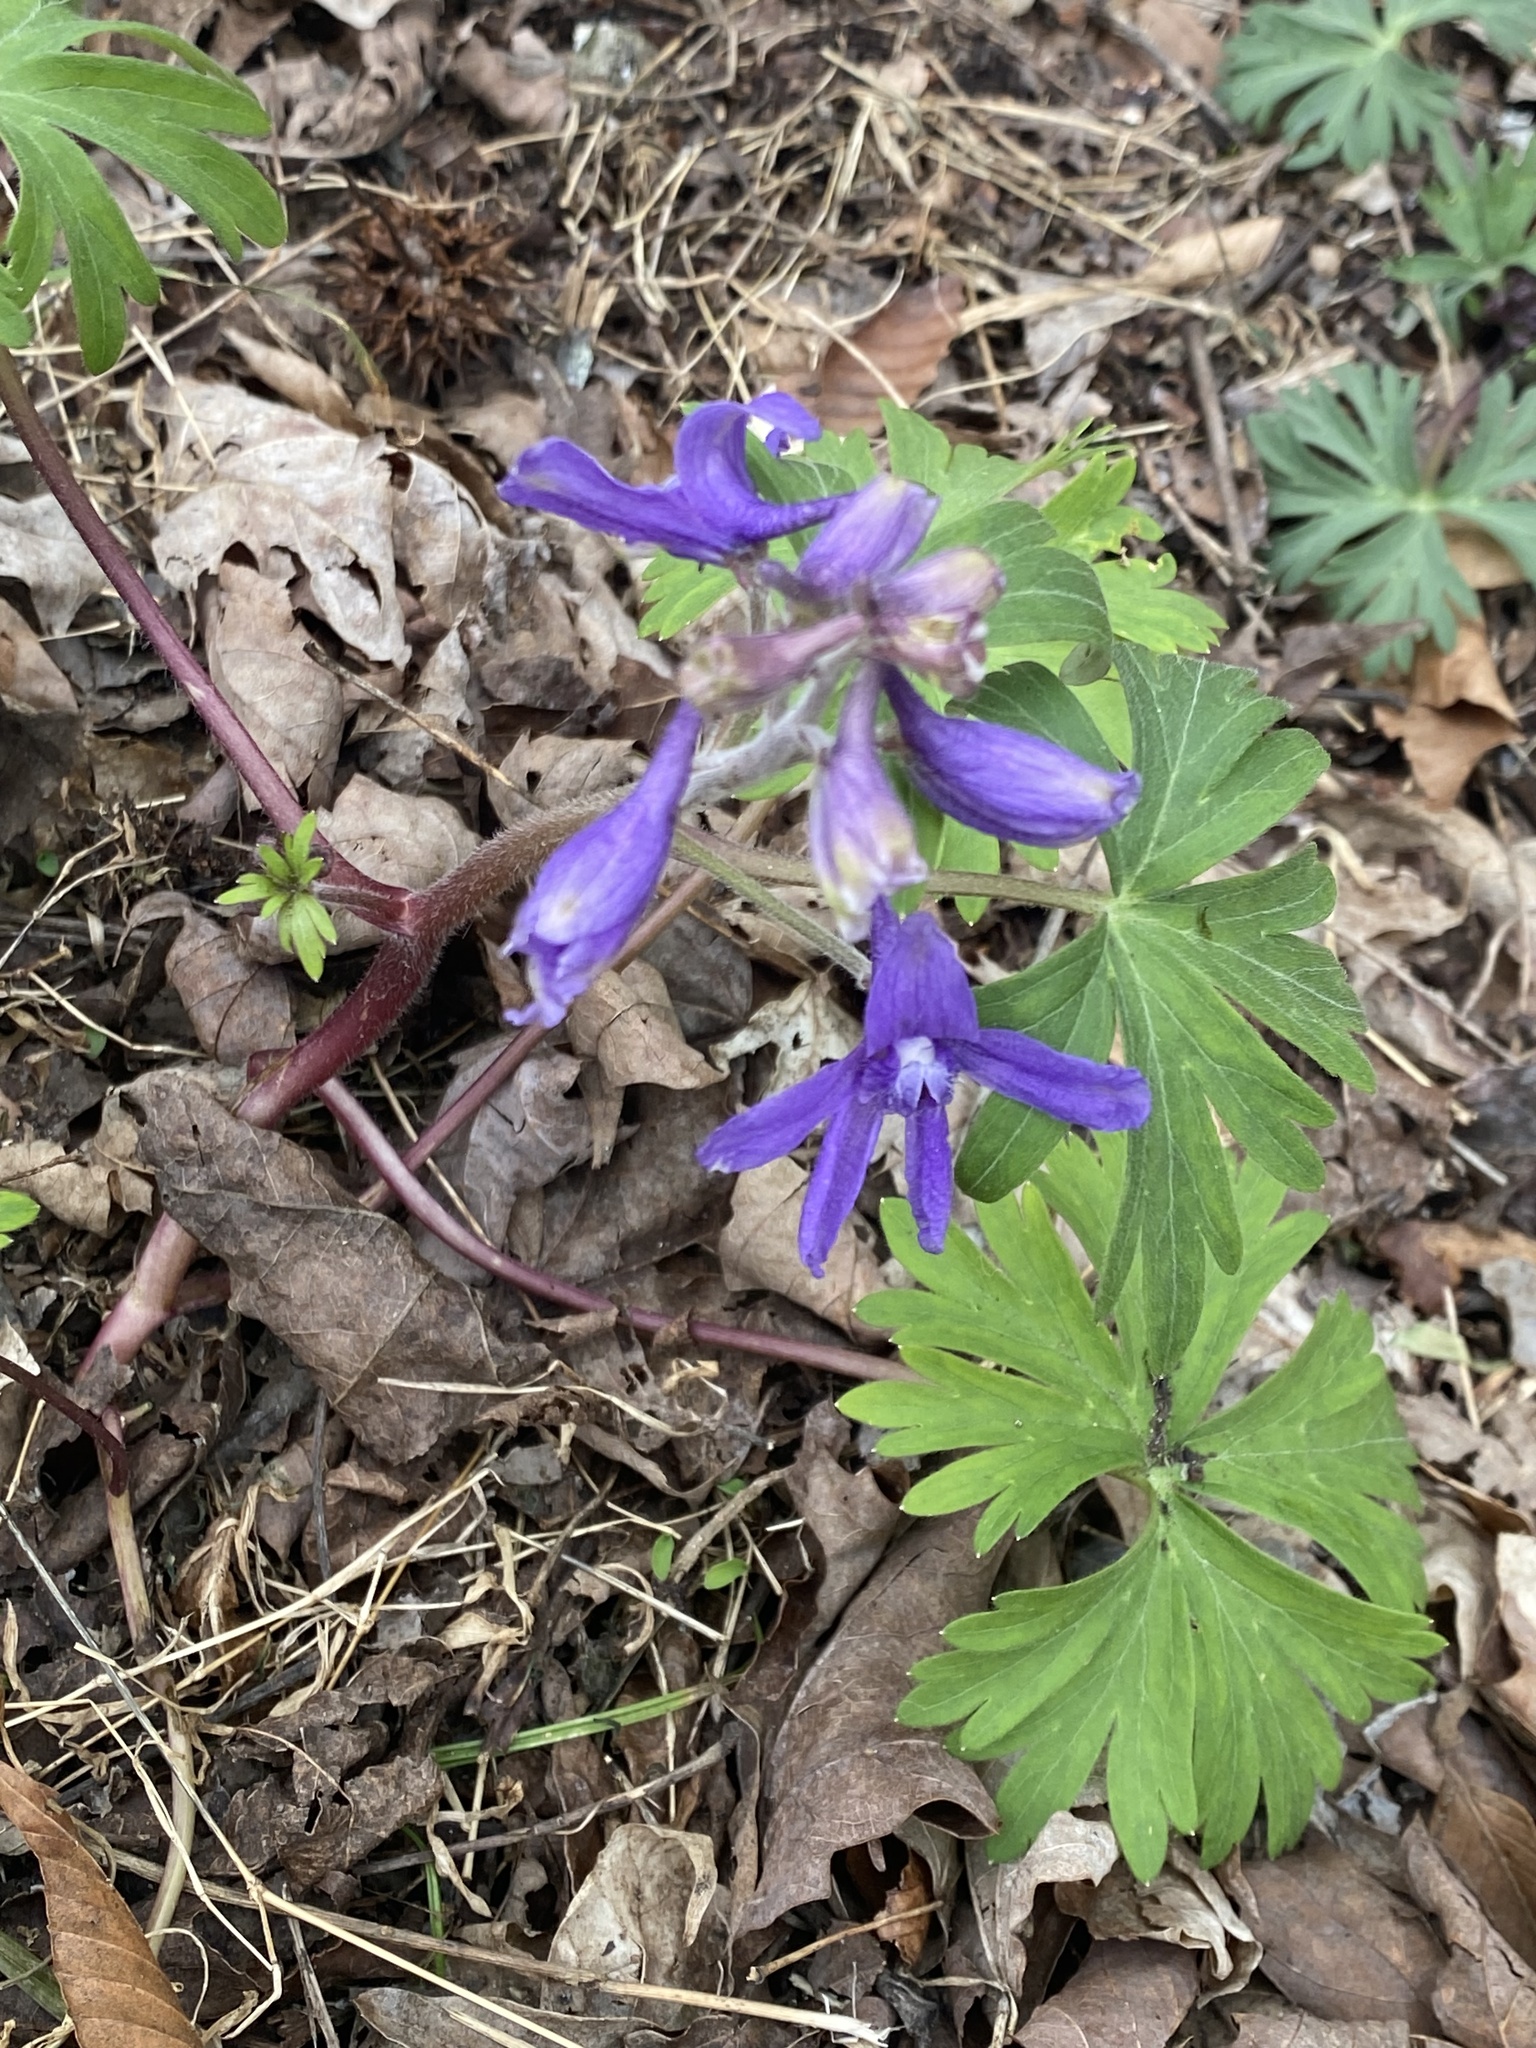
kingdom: Plantae
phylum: Tracheophyta
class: Magnoliopsida
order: Ranunculales
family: Ranunculaceae
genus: Delphinium
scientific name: Delphinium tricorne
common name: Dwarf larkspur
